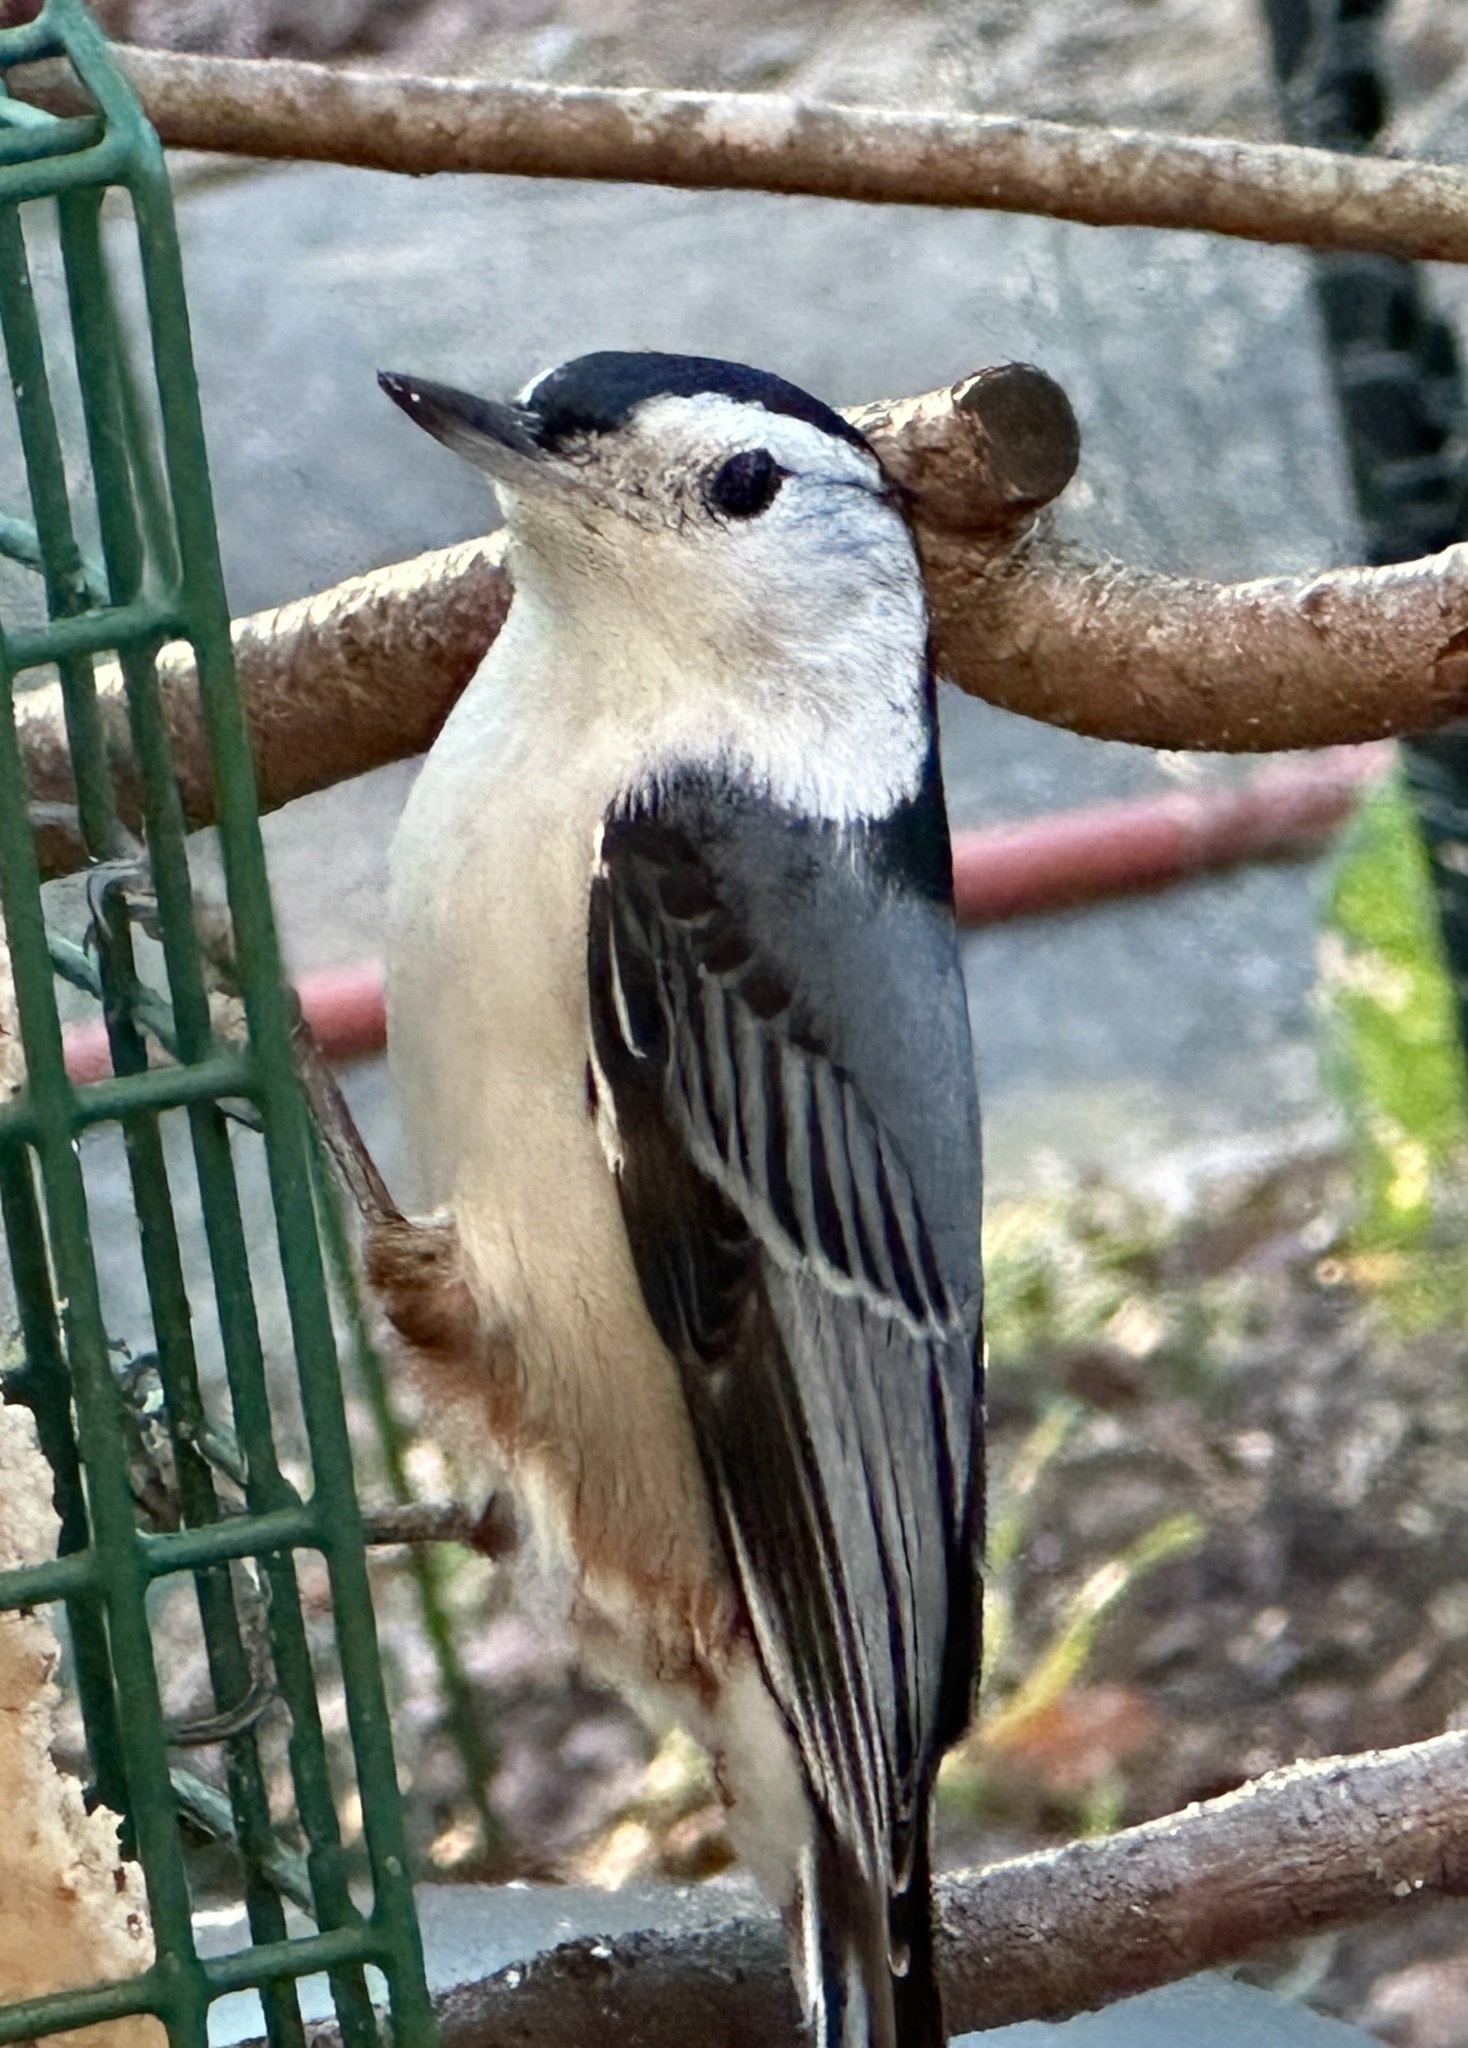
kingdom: Animalia
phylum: Chordata
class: Aves
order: Passeriformes
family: Sittidae
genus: Sitta
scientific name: Sitta carolinensis
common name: White-breasted nuthatch
